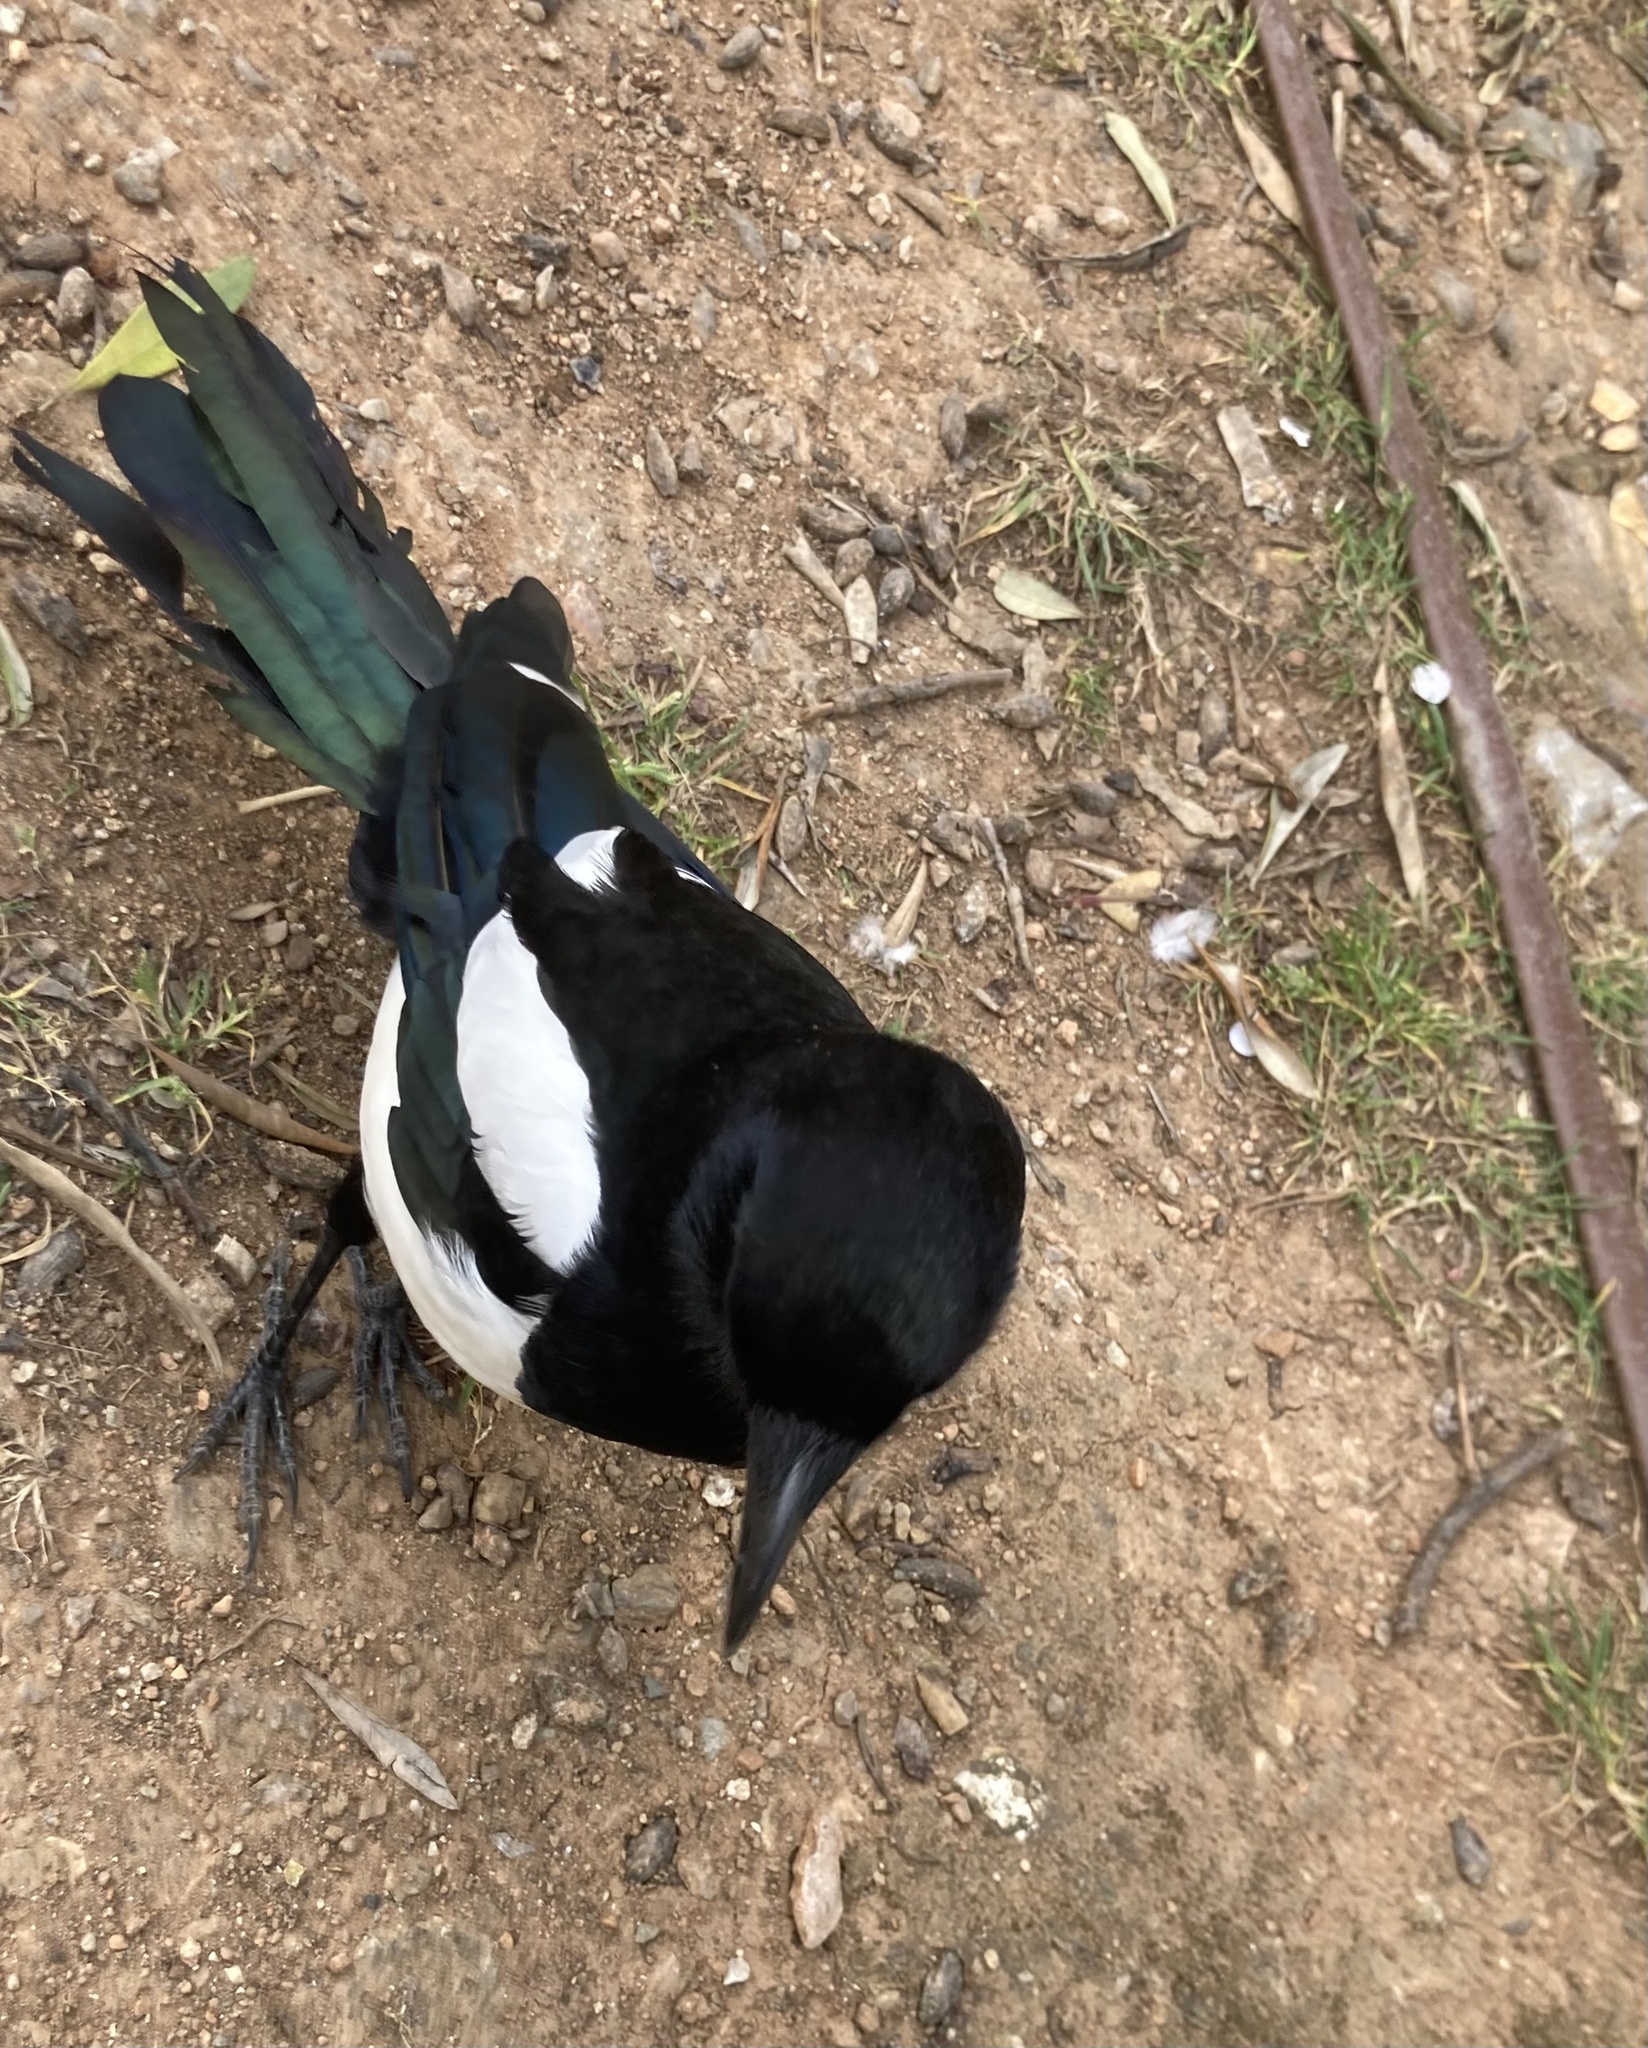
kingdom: Animalia
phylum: Chordata
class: Aves
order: Passeriformes
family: Corvidae
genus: Pica
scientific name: Pica pica
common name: Eurasian magpie
